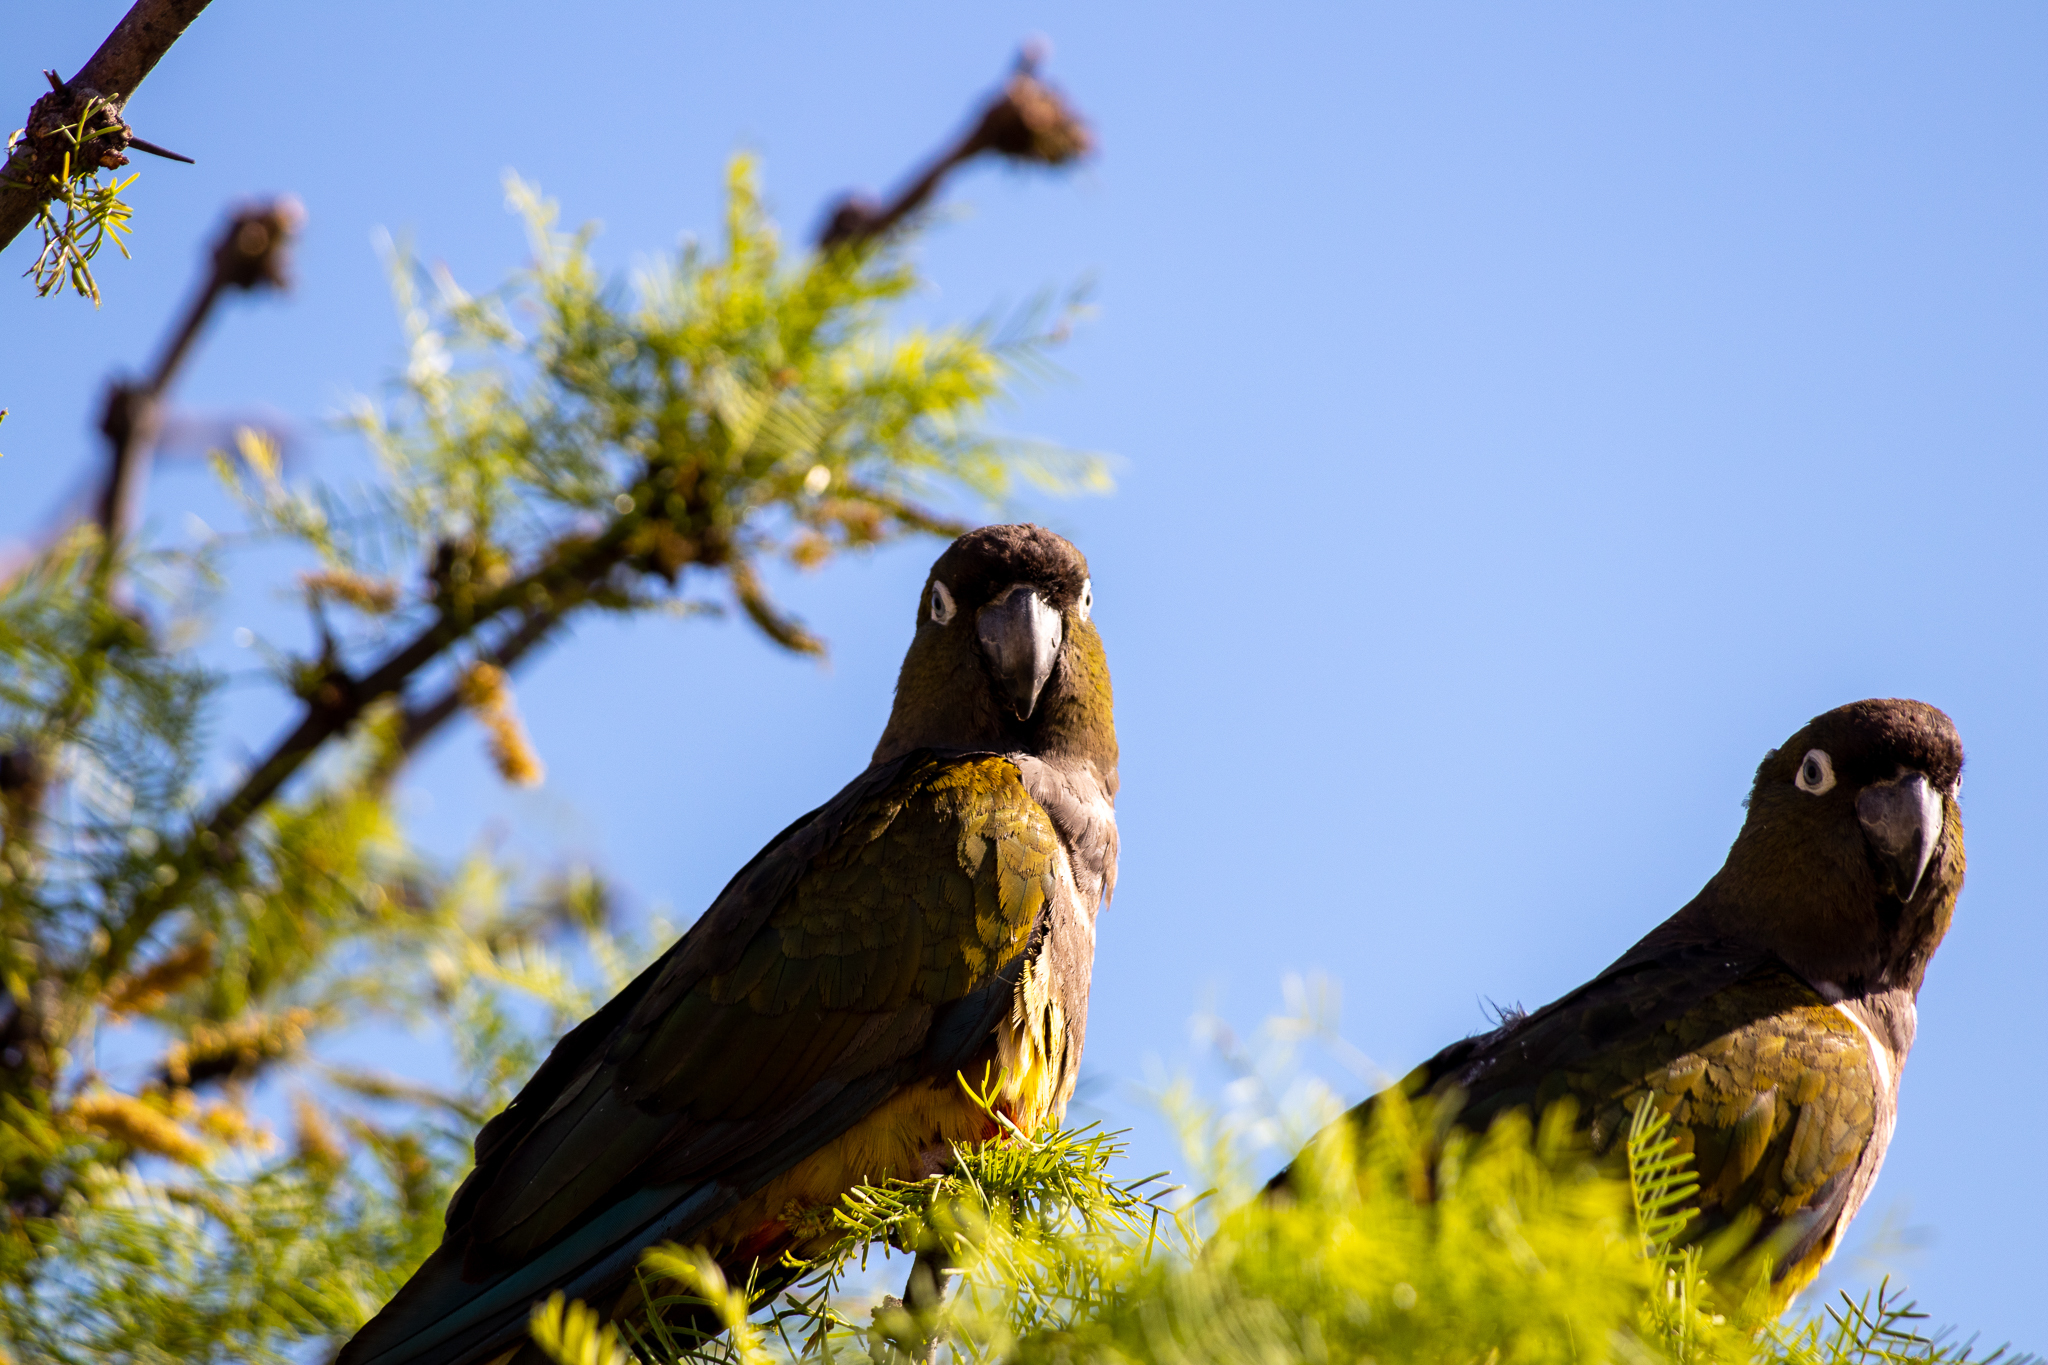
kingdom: Animalia
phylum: Chordata
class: Aves
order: Psittaciformes
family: Psittacidae
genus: Cyanoliseus
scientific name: Cyanoliseus patagonus
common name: Burrowing parrot
